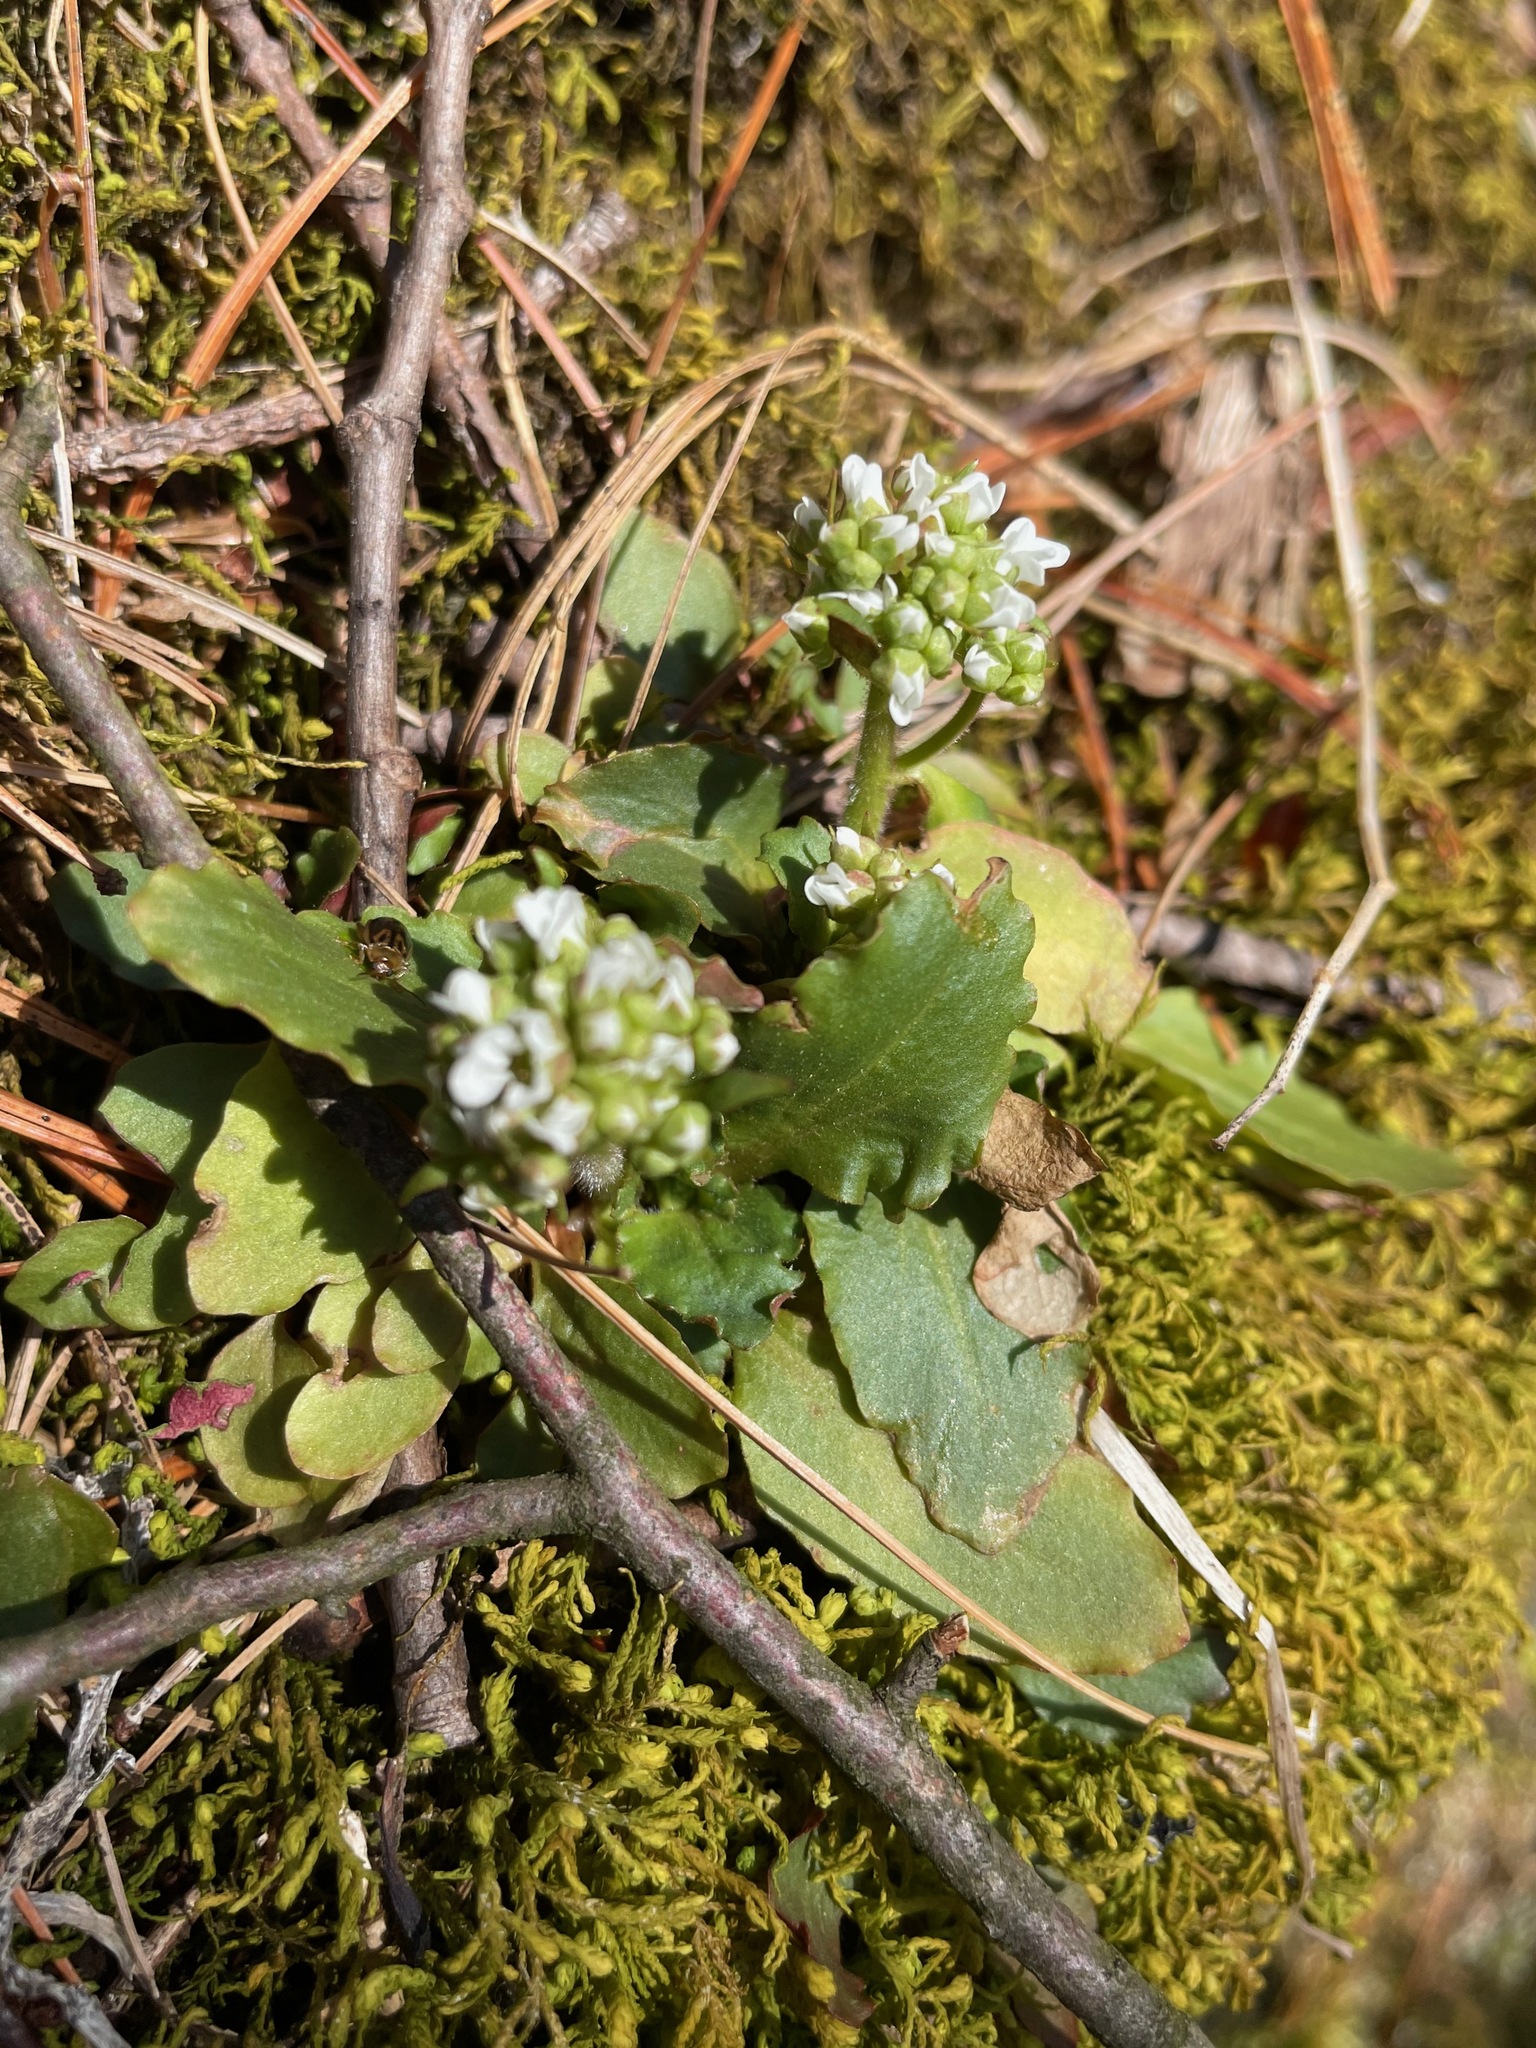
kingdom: Plantae
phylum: Tracheophyta
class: Magnoliopsida
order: Saxifragales
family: Saxifragaceae
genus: Micranthes
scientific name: Micranthes virginiensis
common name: Early saxifrage
